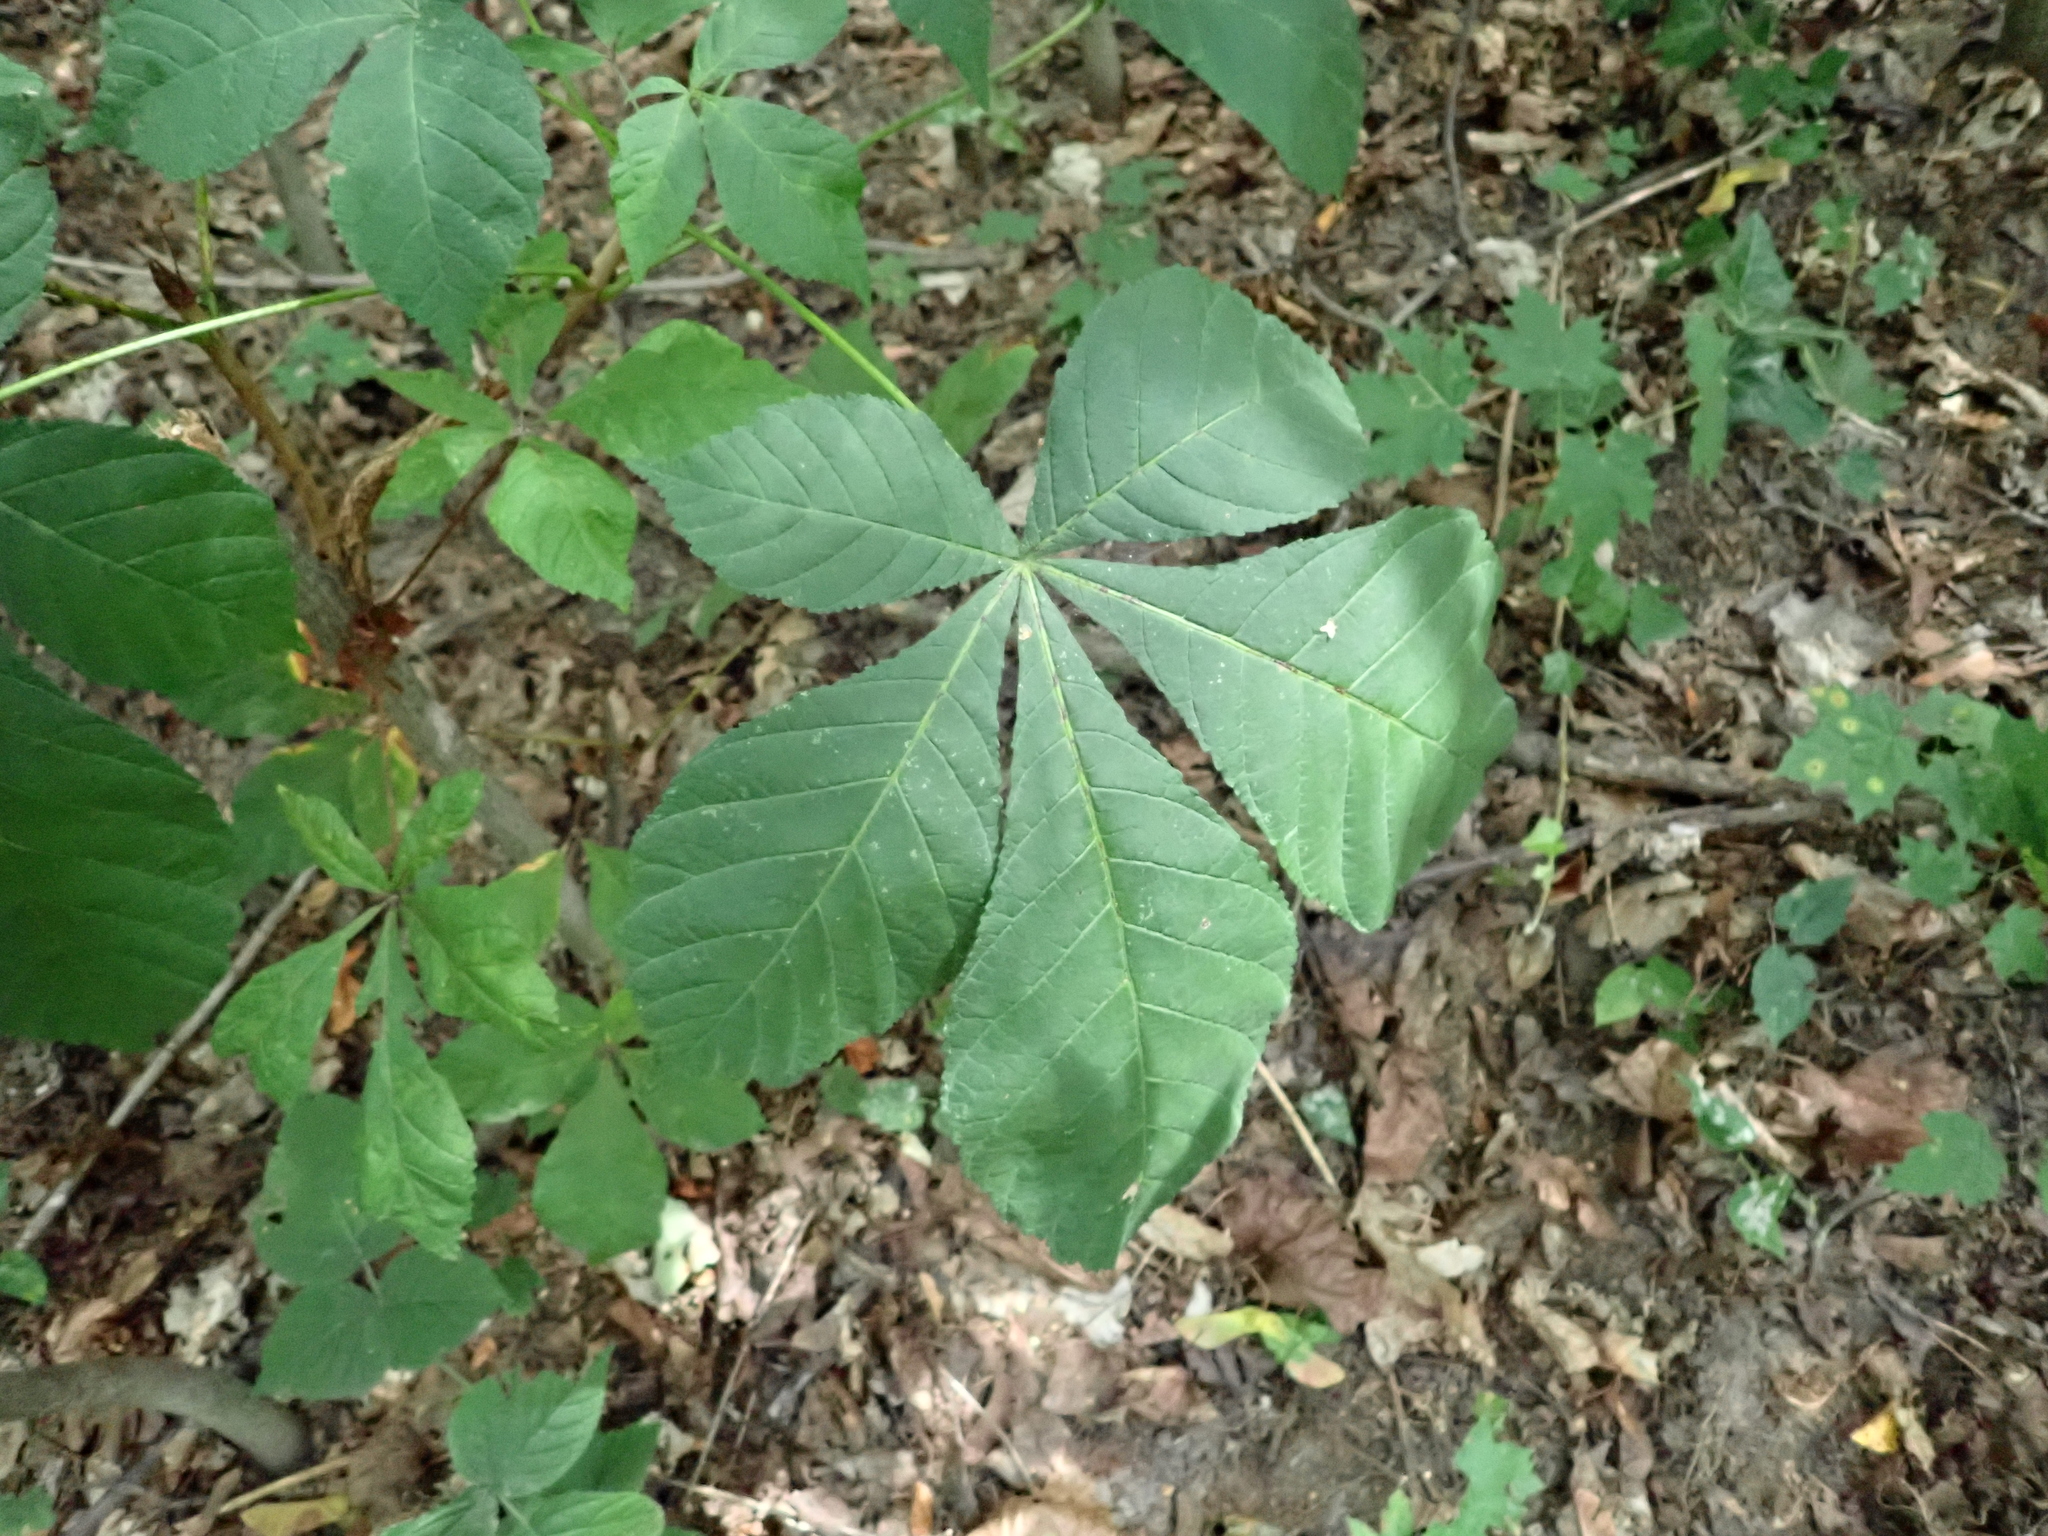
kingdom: Plantae
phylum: Tracheophyta
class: Magnoliopsida
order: Sapindales
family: Sapindaceae
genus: Aesculus
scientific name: Aesculus hippocastanum
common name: Horse-chestnut
